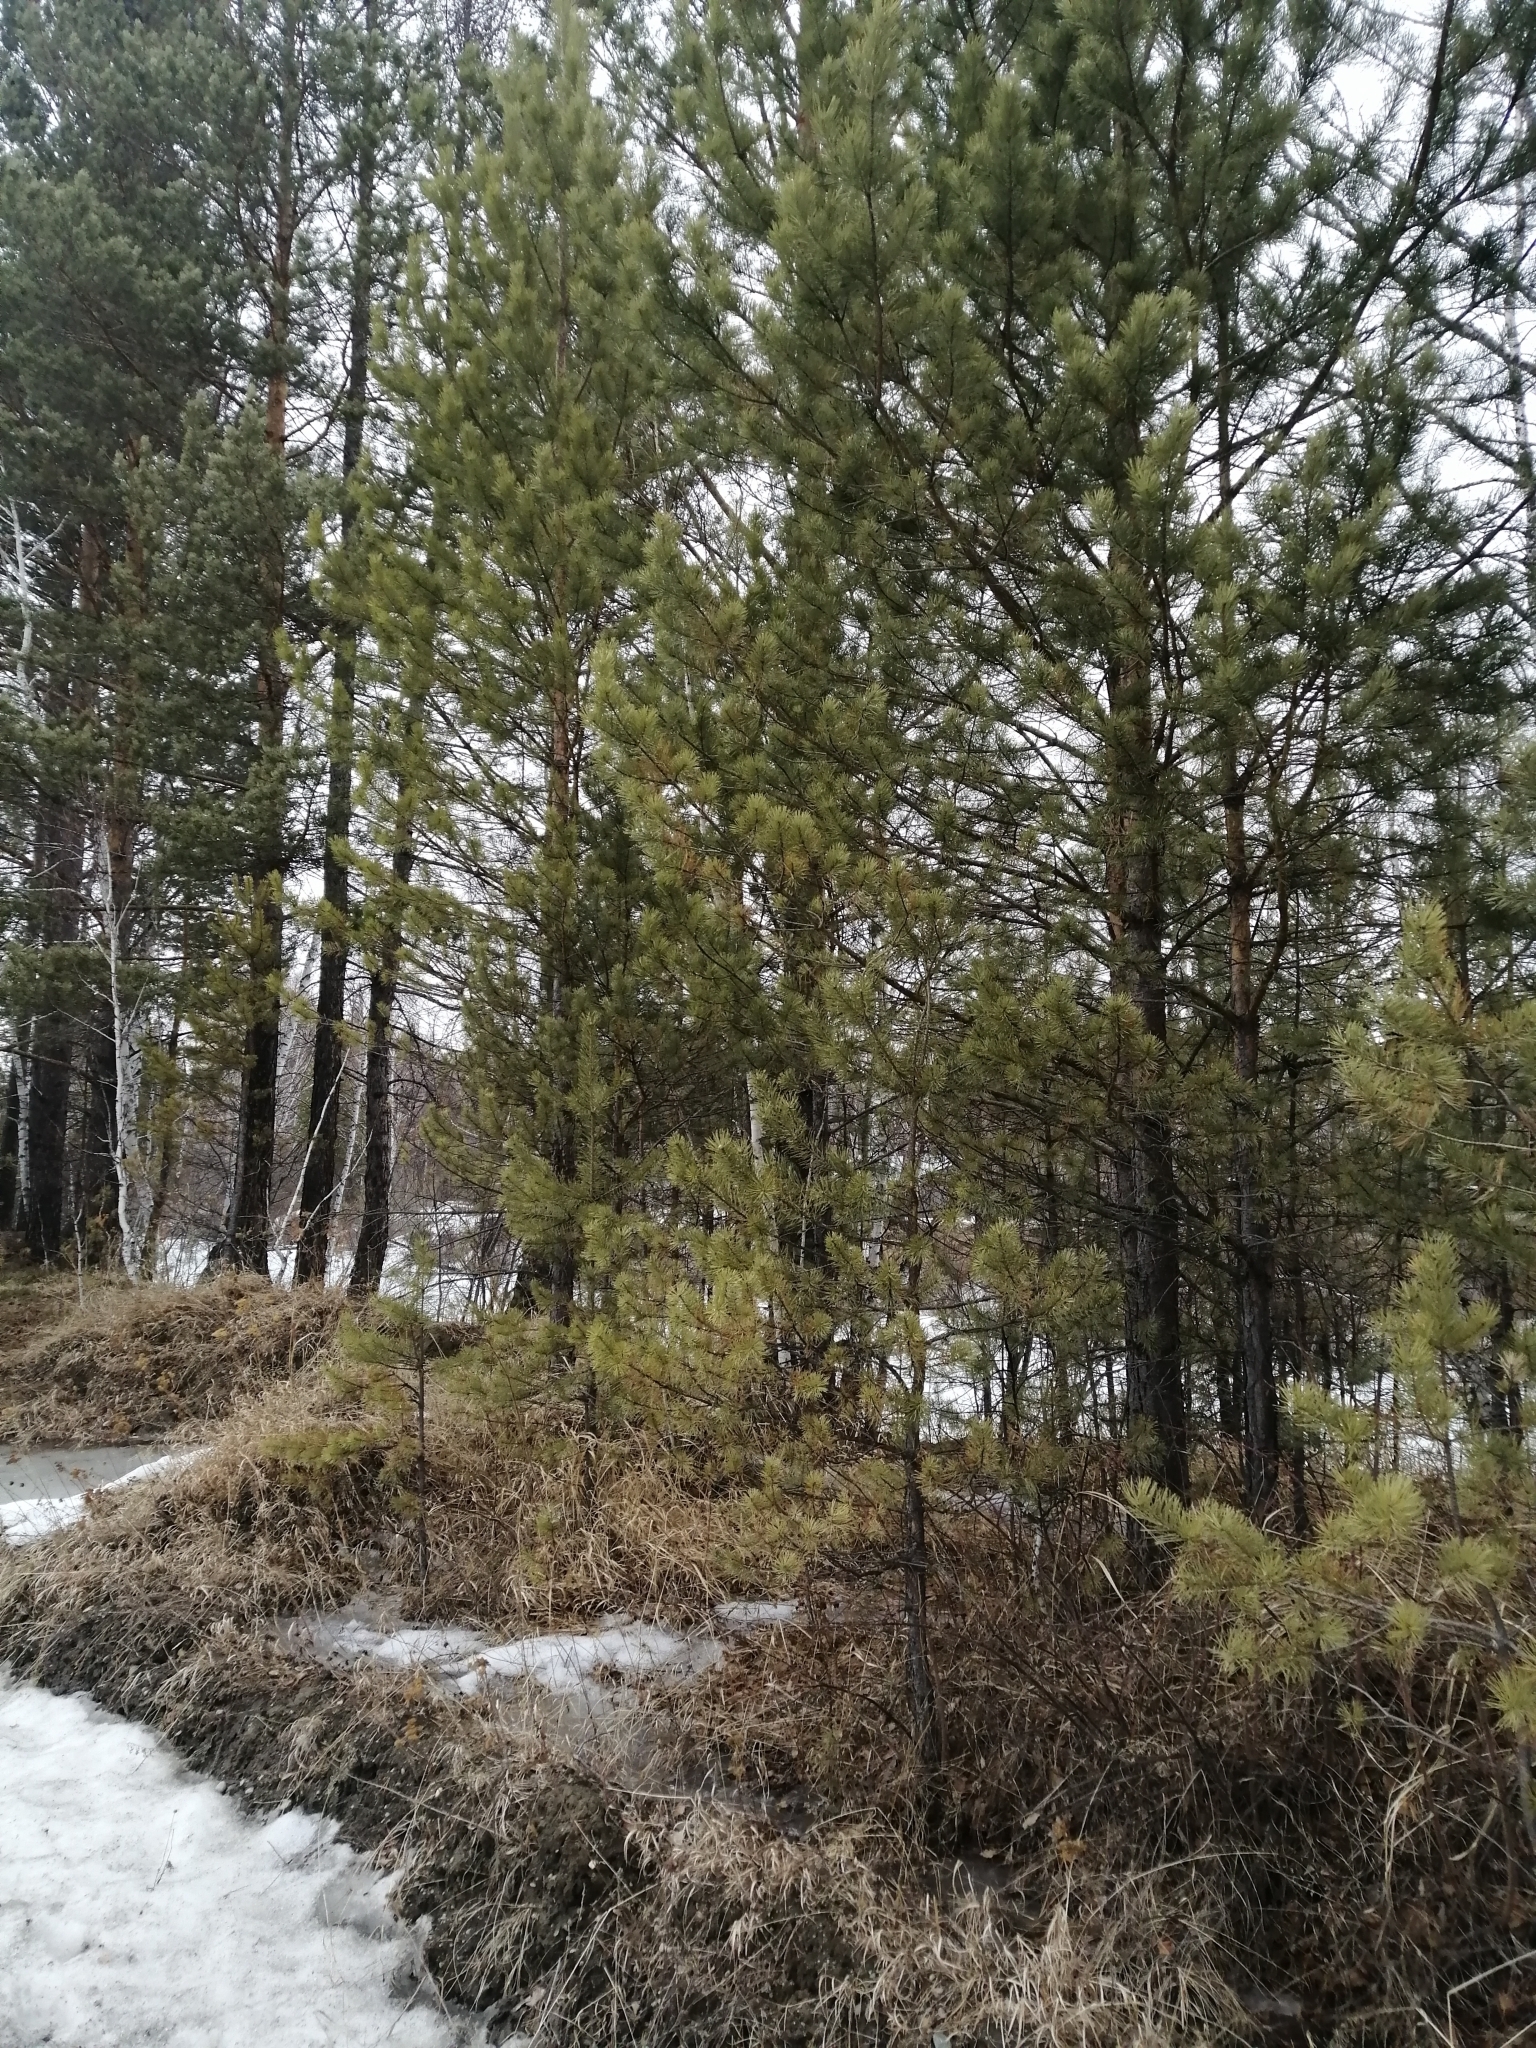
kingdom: Plantae
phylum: Tracheophyta
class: Pinopsida
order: Pinales
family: Pinaceae
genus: Pinus
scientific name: Pinus sylvestris
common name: Scots pine
